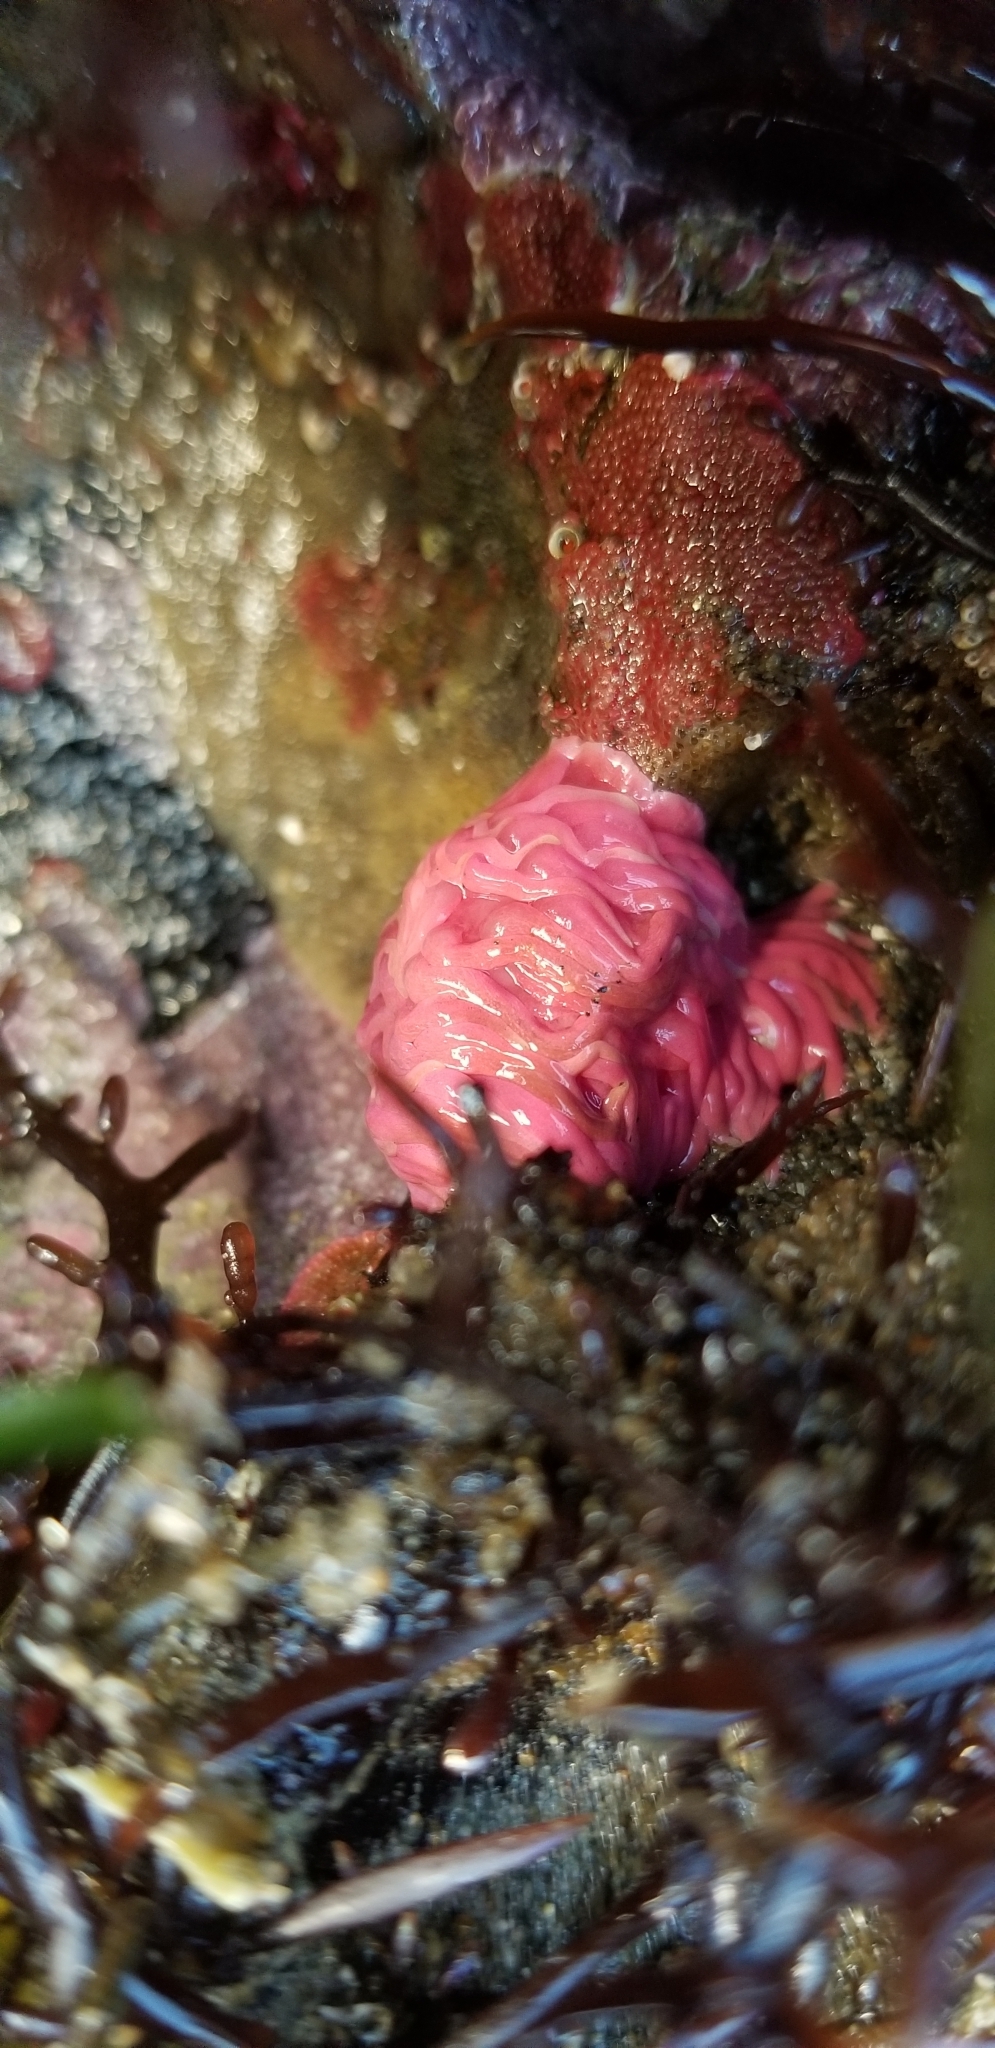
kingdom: Animalia
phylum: Mollusca
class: Gastropoda
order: Nudibranchia
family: Goniodorididae
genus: Okenia
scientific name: Okenia
